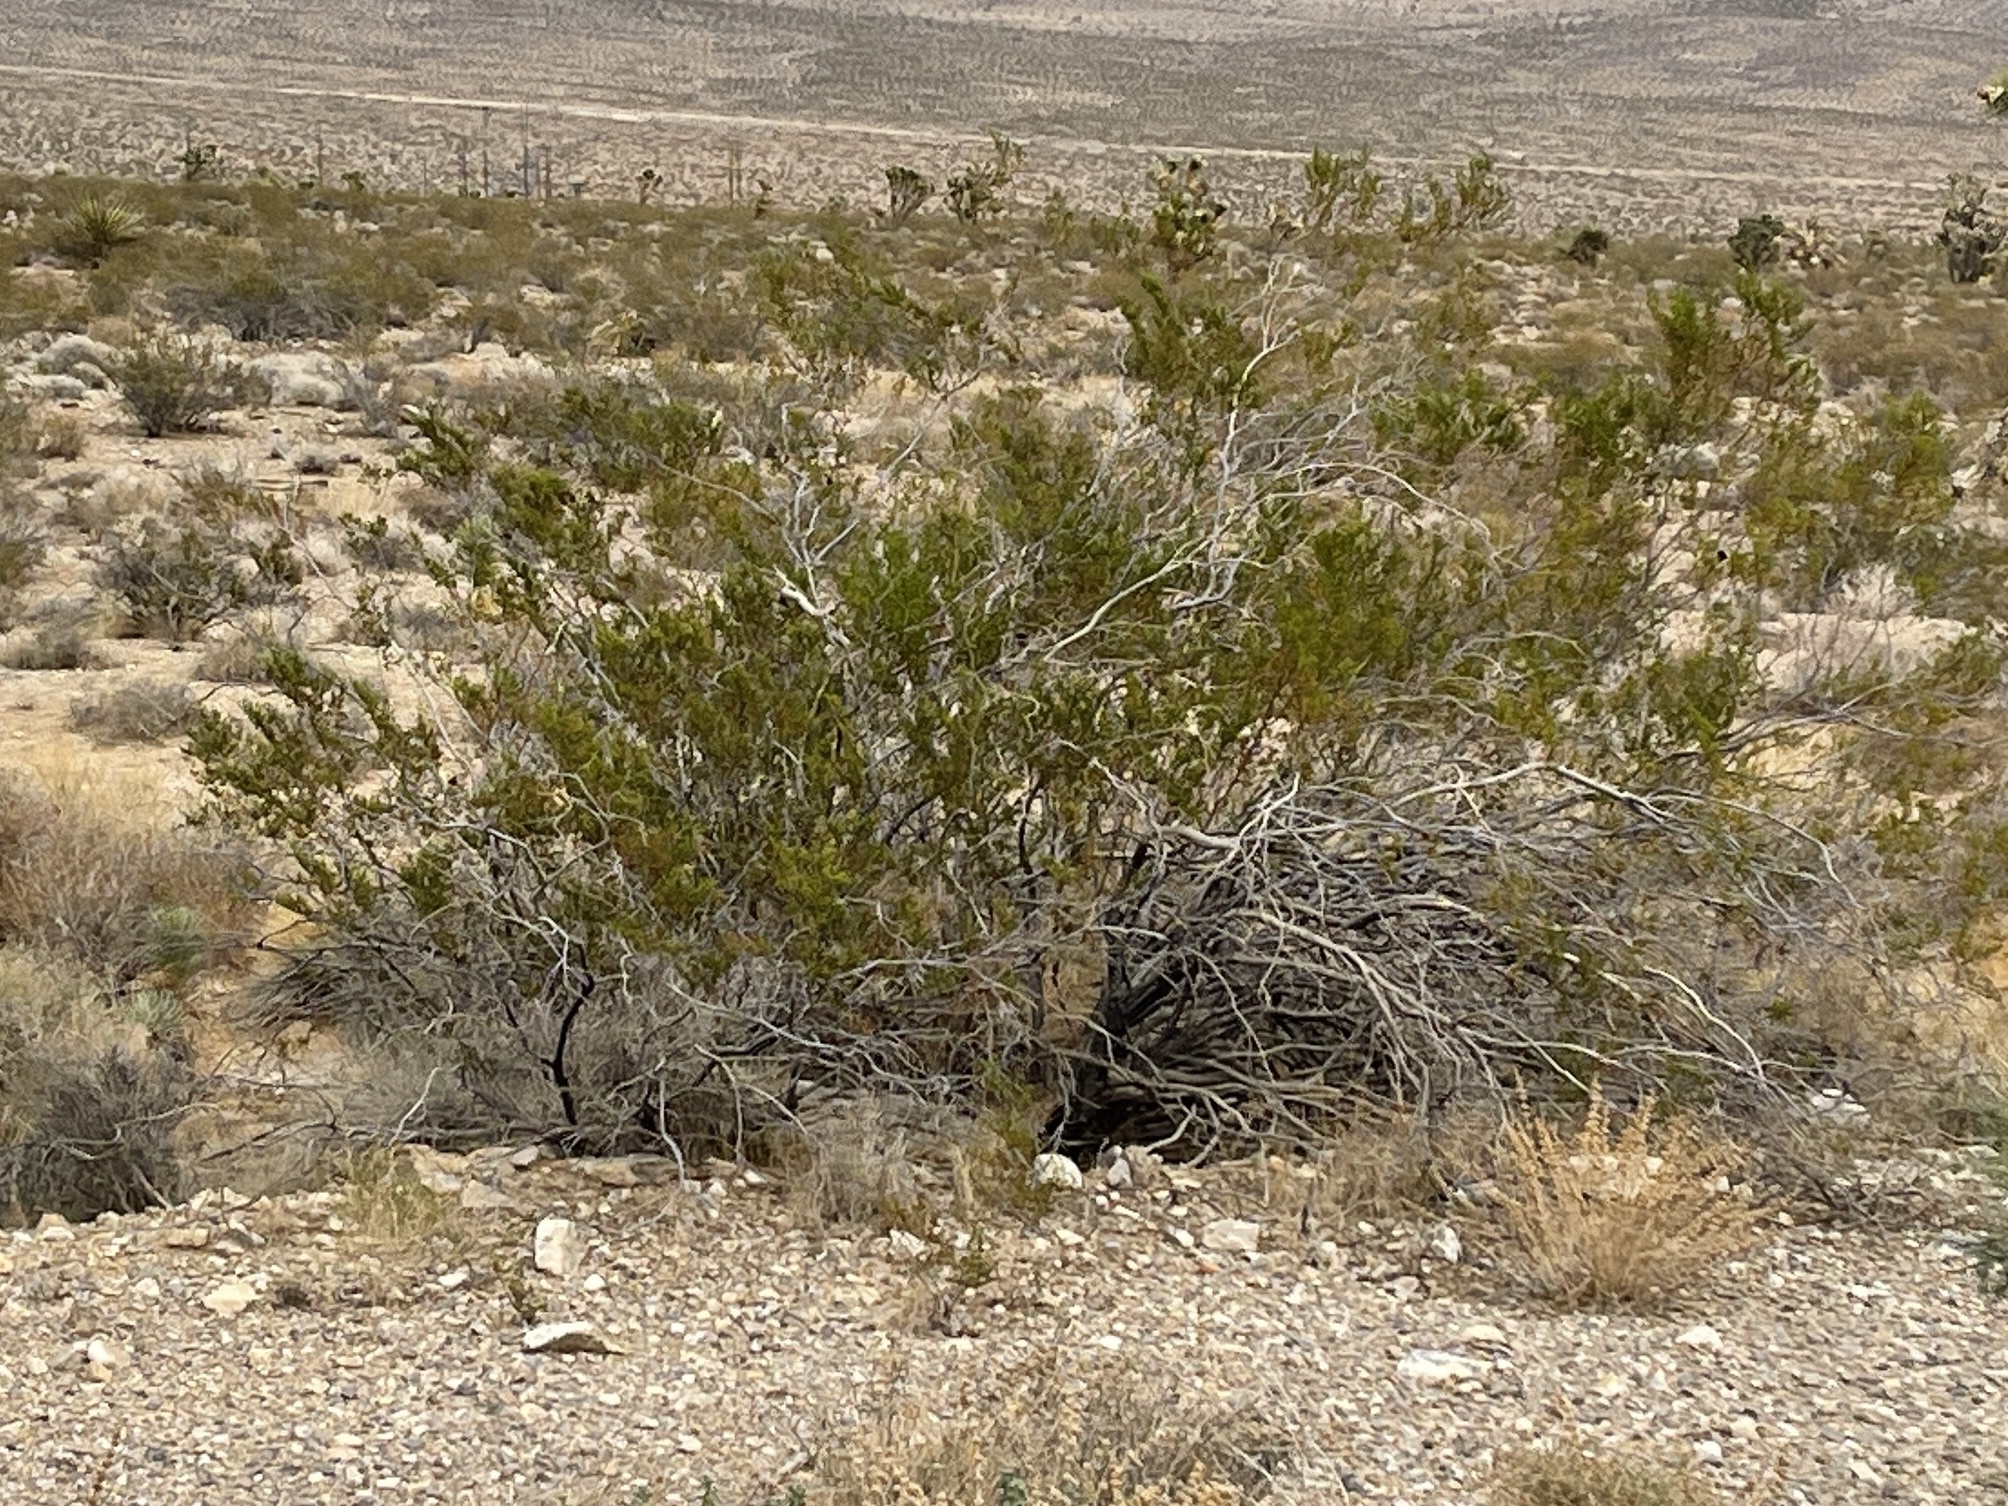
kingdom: Plantae
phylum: Tracheophyta
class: Magnoliopsida
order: Zygophyllales
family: Zygophyllaceae
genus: Larrea
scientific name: Larrea tridentata
